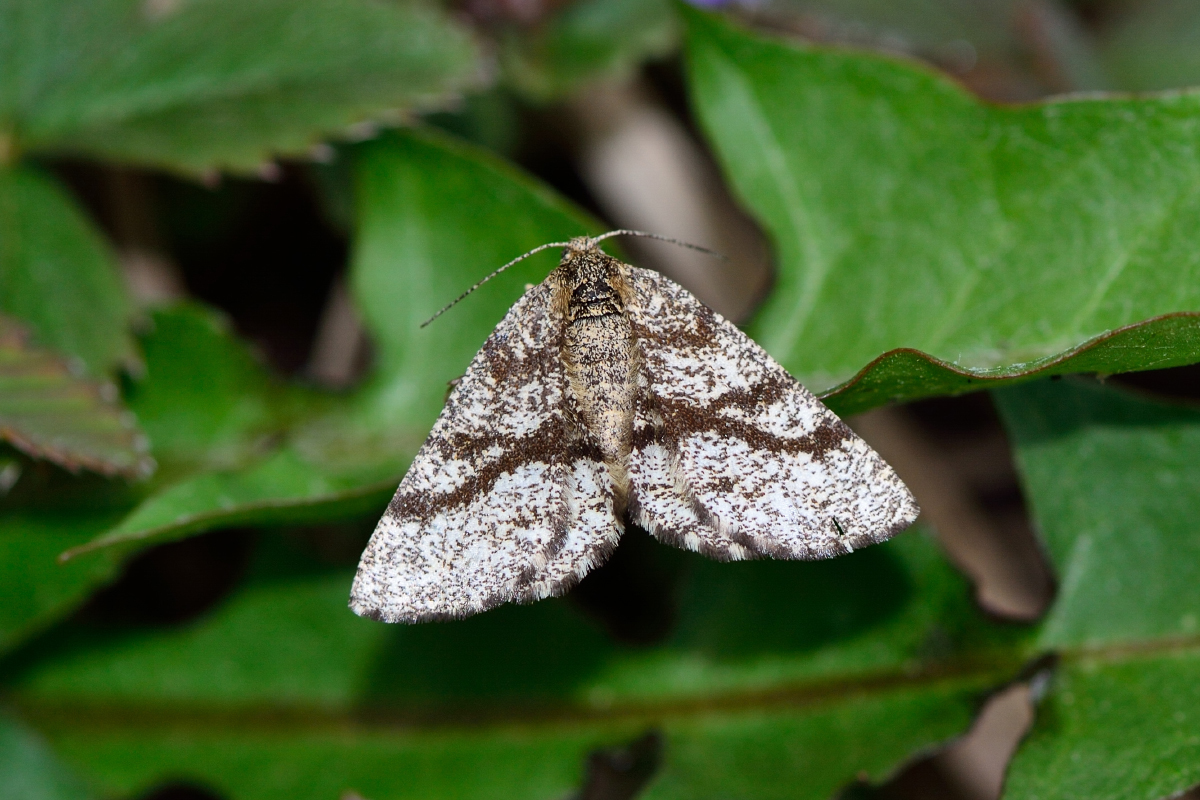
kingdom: Animalia
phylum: Arthropoda
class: Insecta
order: Lepidoptera
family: Geometridae
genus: Ematurga
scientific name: Ematurga atomaria
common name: Common heath
